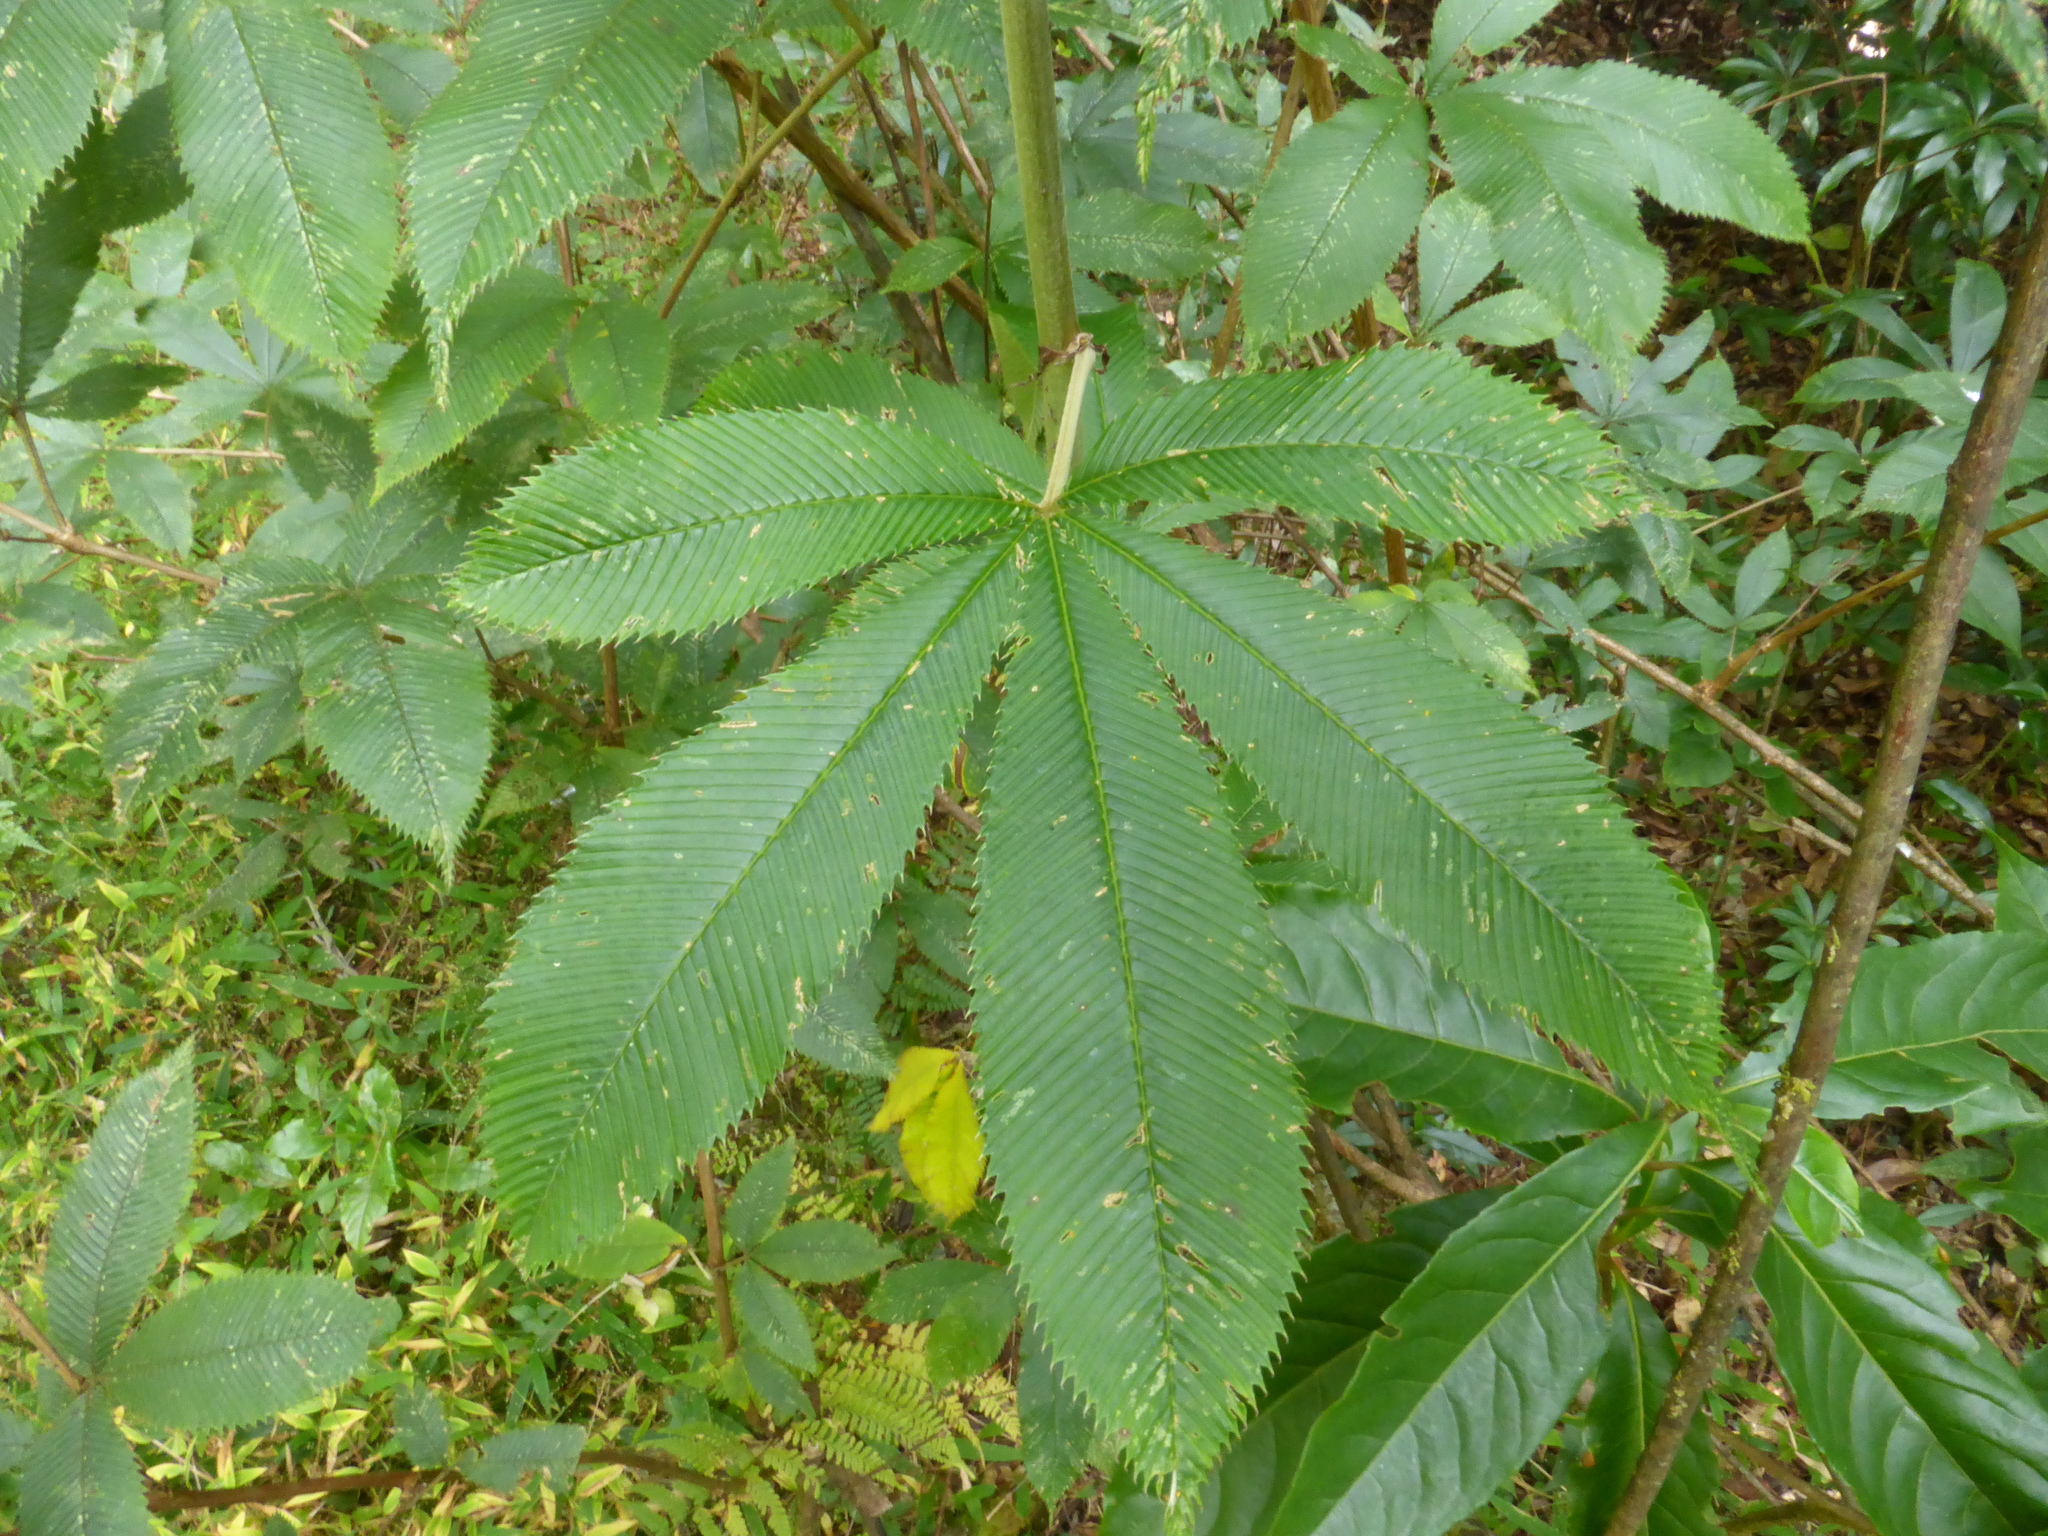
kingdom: Plantae
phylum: Tracheophyta
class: Magnoliopsida
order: Rosales
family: Rosaceae
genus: Rubus
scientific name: Rubus lineatus
